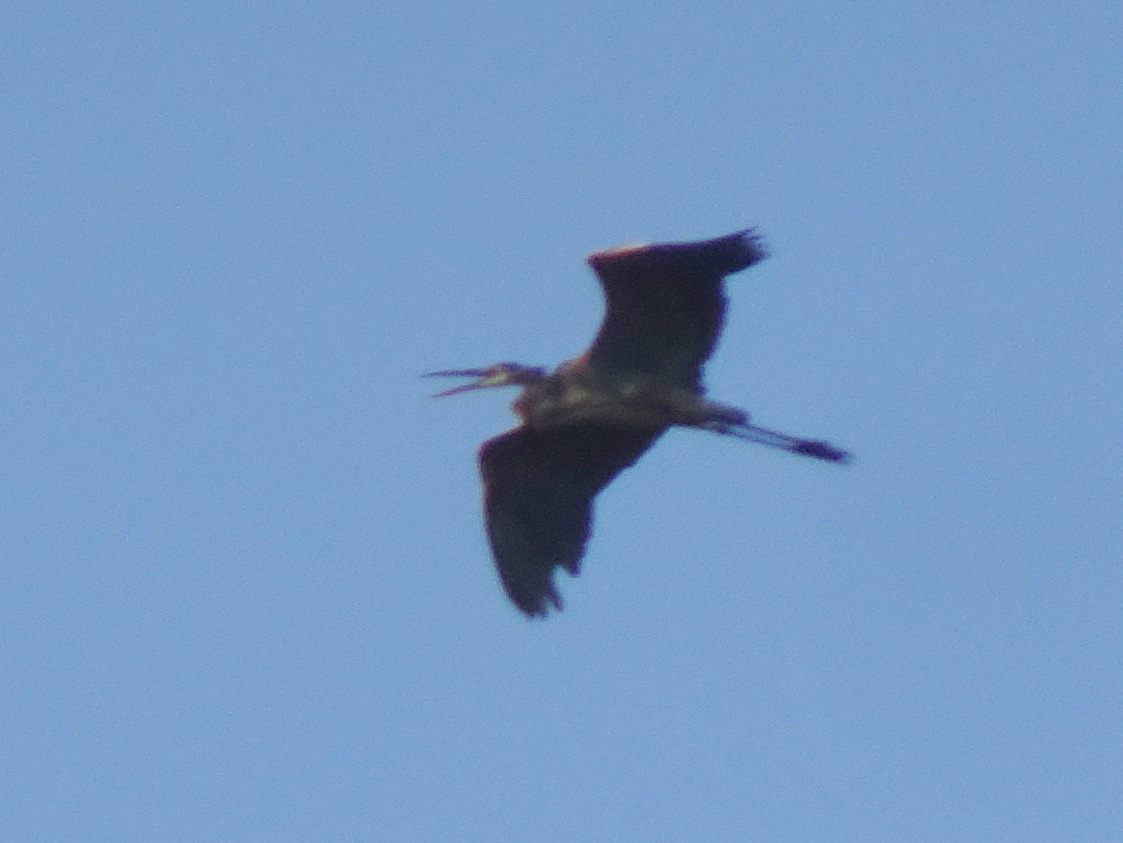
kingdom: Animalia
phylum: Chordata
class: Aves
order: Pelecaniformes
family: Ardeidae
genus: Ardea
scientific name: Ardea herodias
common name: Great blue heron
